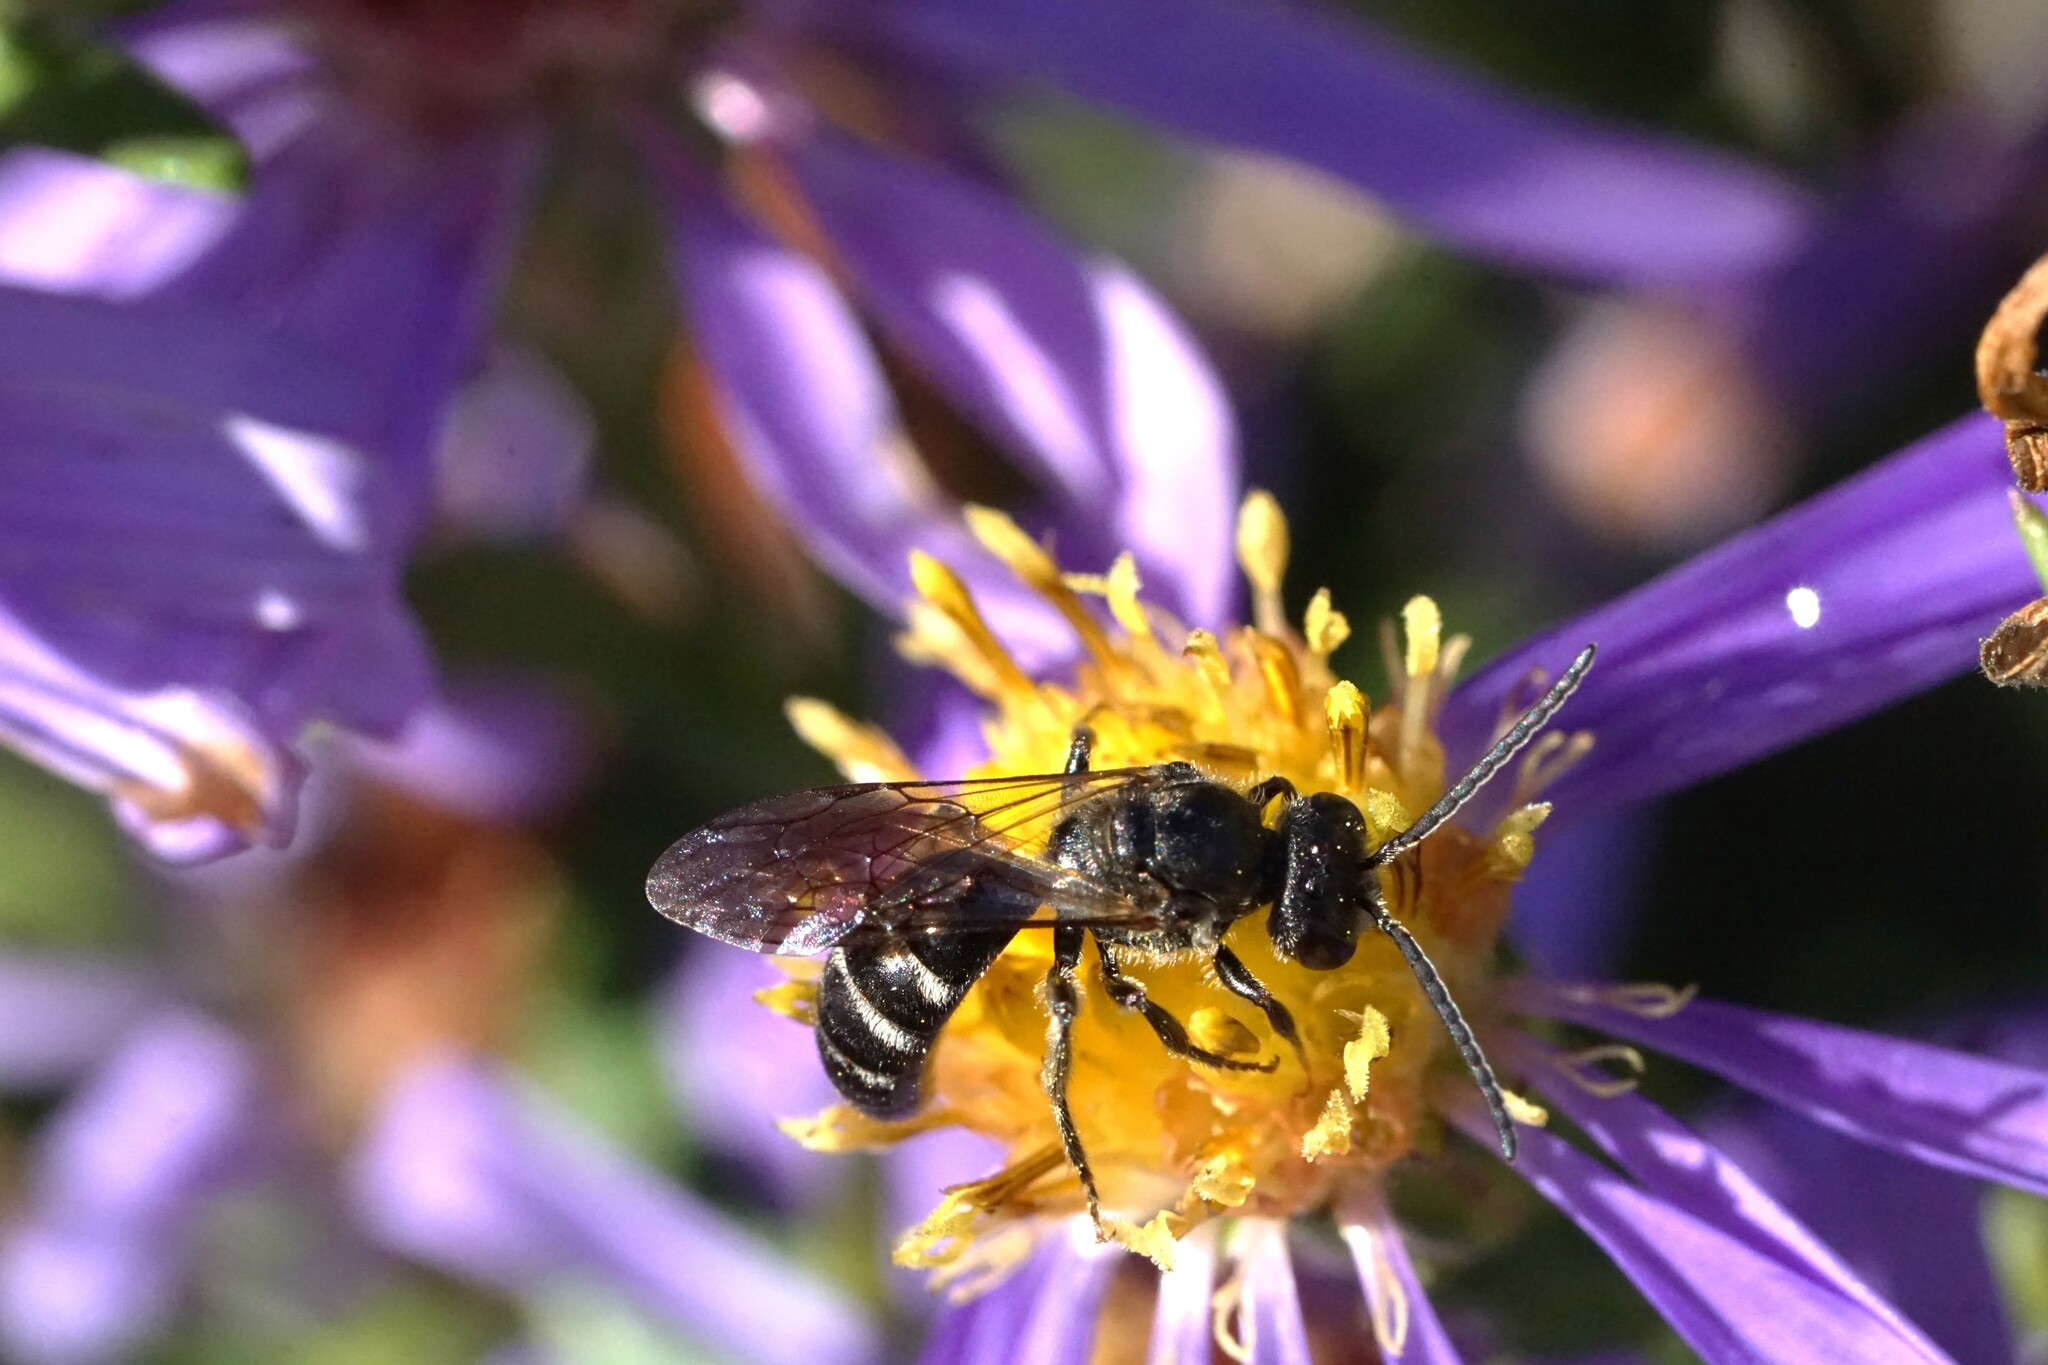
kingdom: Animalia
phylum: Arthropoda
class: Insecta
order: Hymenoptera
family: Halictidae
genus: Lasioglossum
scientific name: Lasioglossum fuscipenne
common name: Brown-winged sweat bee
